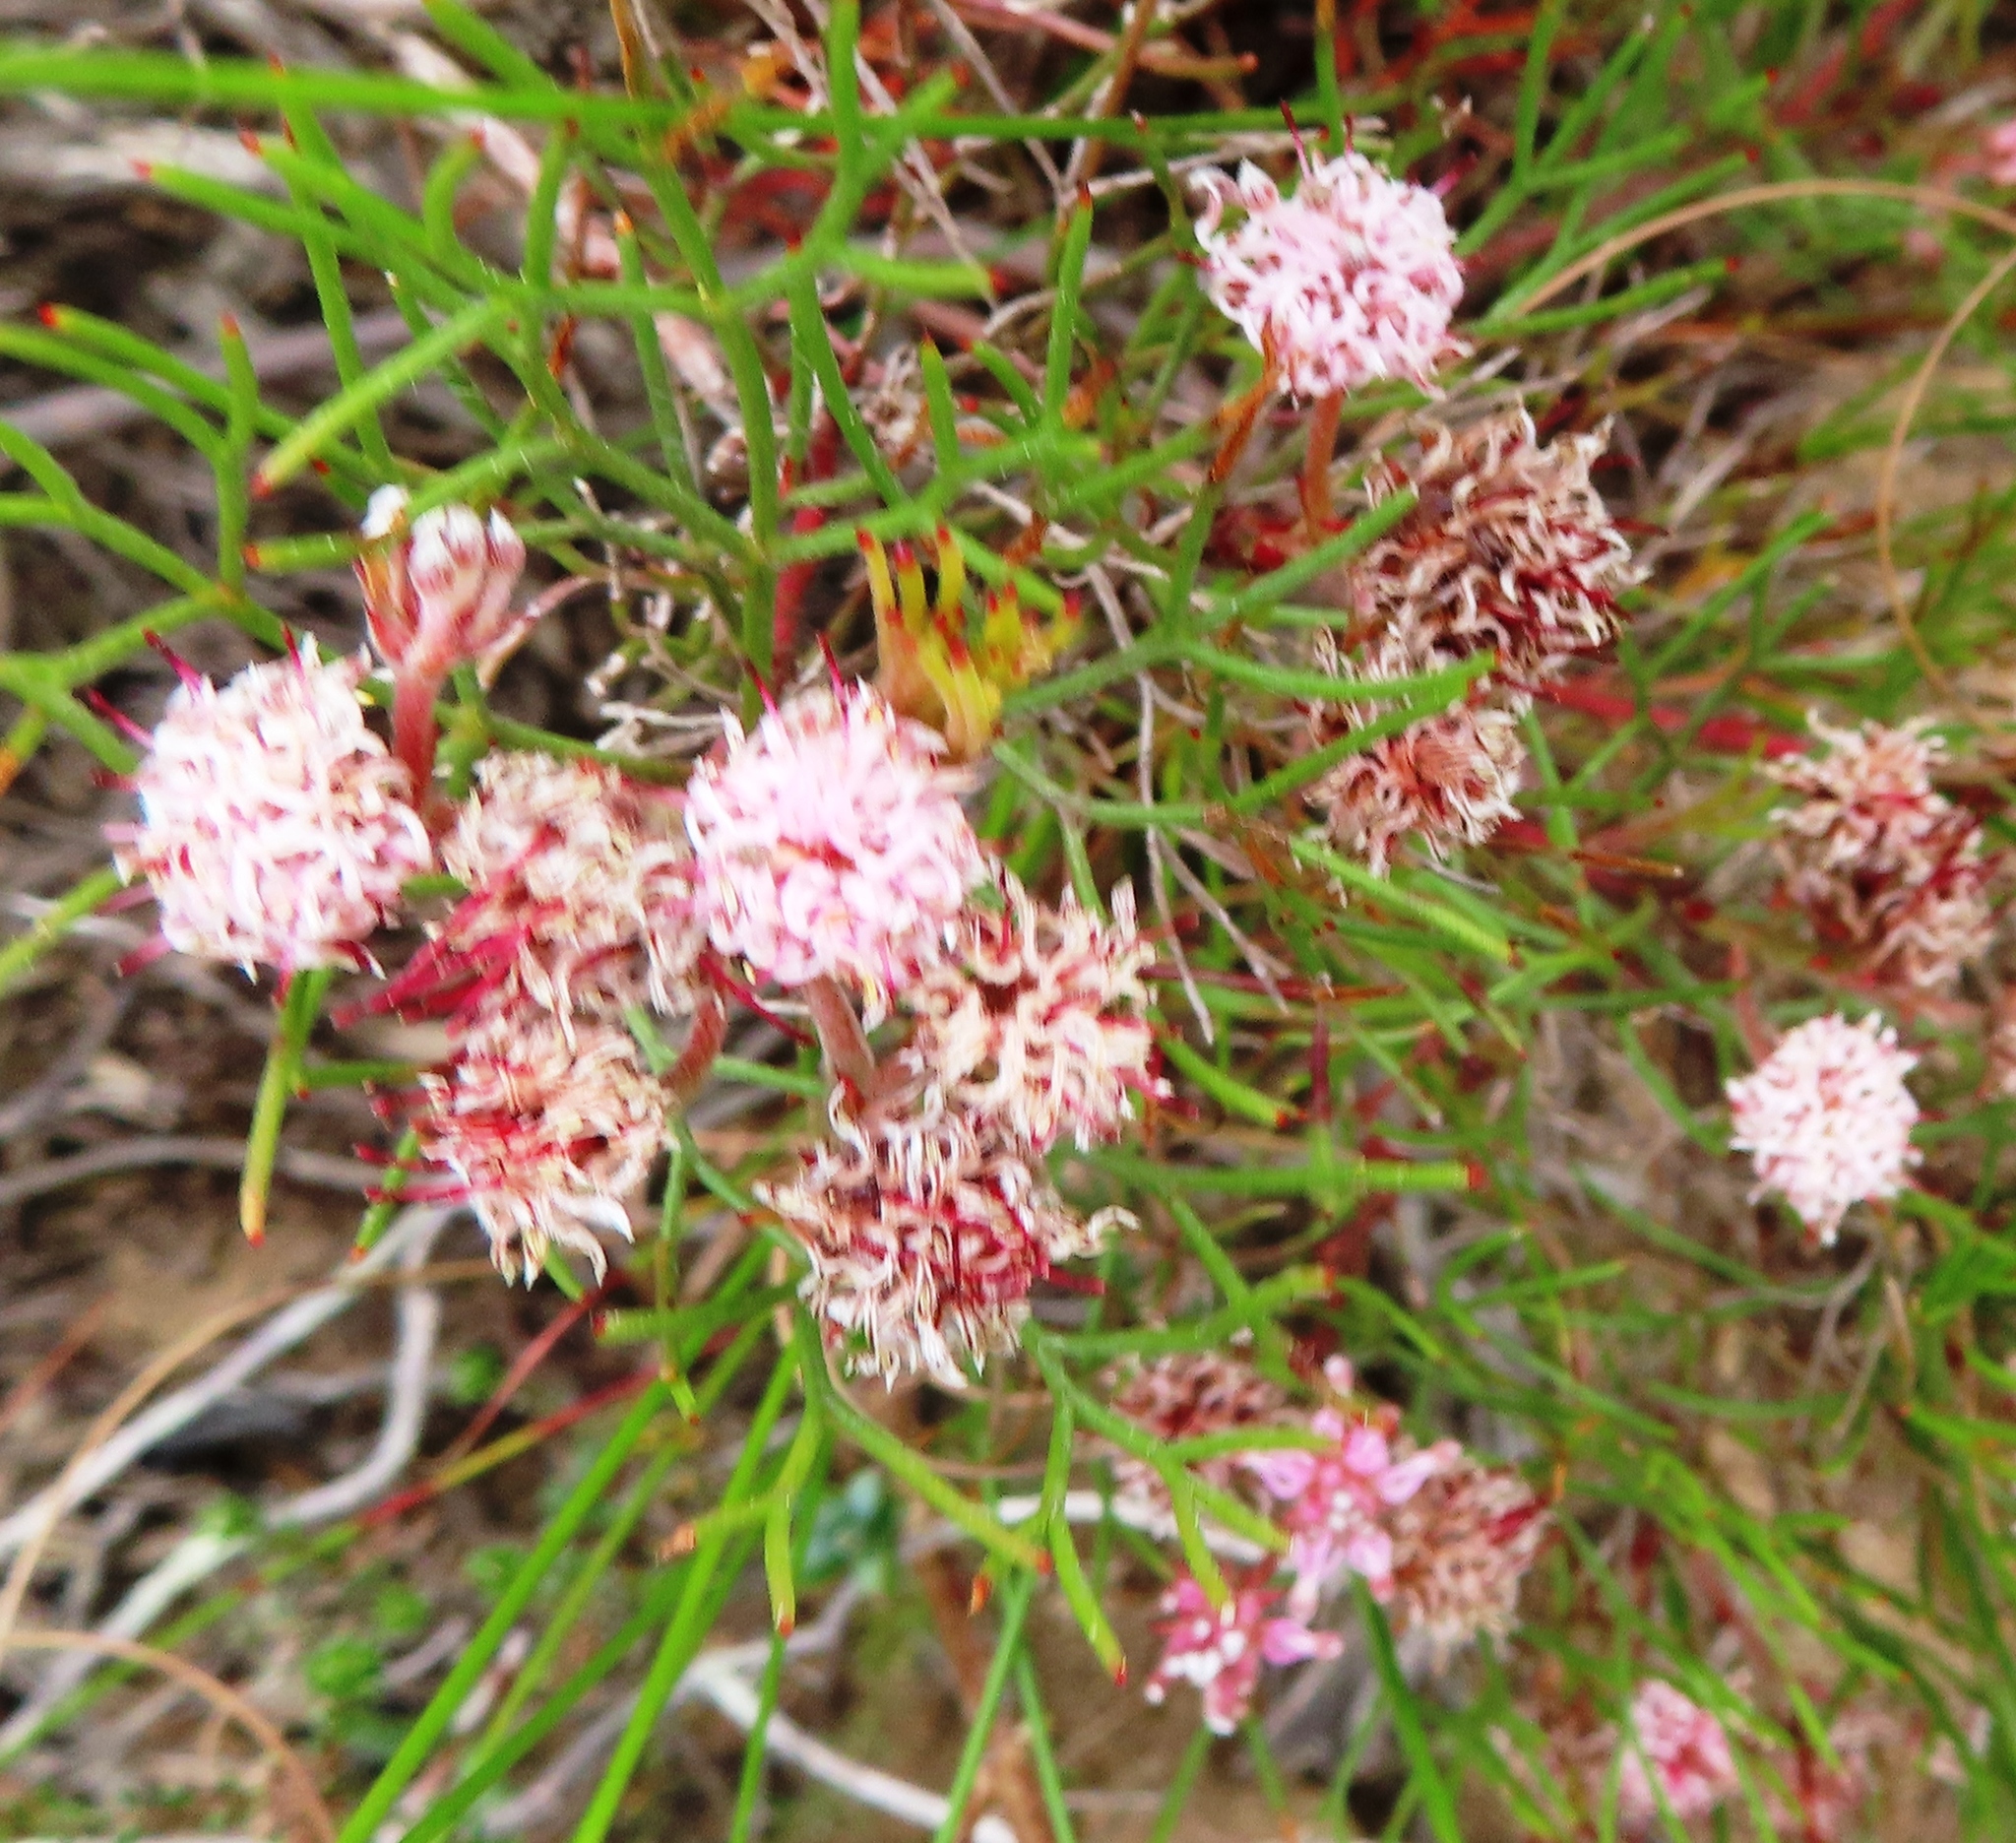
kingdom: Plantae
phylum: Tracheophyta
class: Magnoliopsida
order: Proteales
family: Proteaceae
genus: Serruria
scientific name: Serruria fasciflora
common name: Common pin spiderhead
